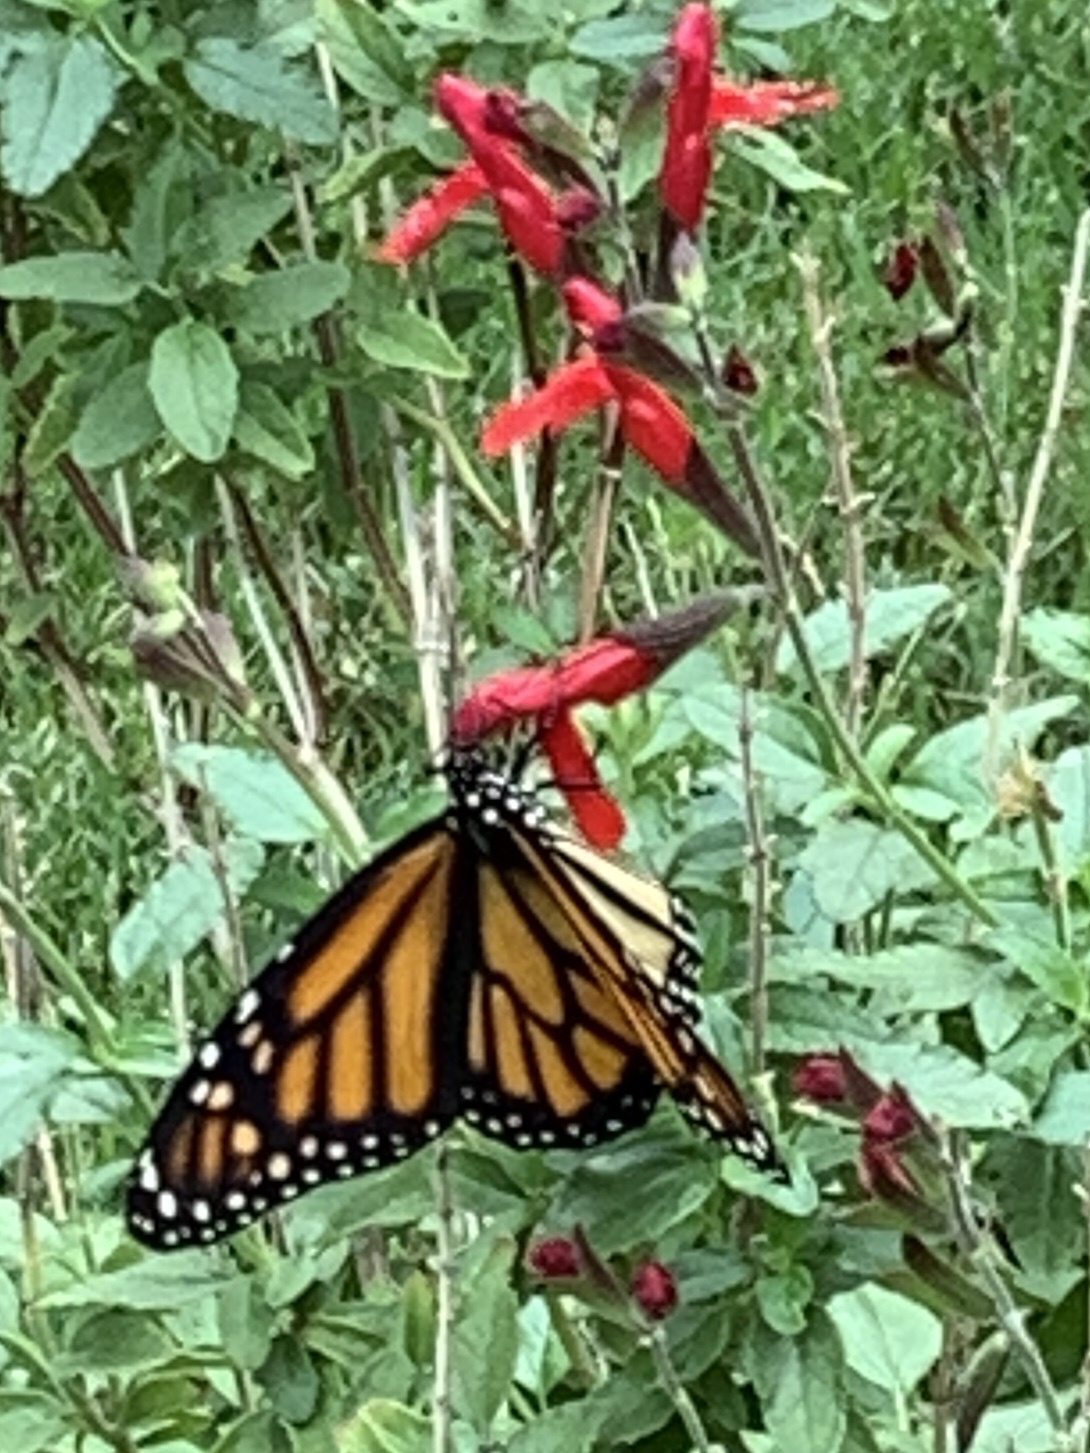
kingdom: Animalia
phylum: Arthropoda
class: Insecta
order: Lepidoptera
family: Nymphalidae
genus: Danaus
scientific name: Danaus plexippus
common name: Monarch
